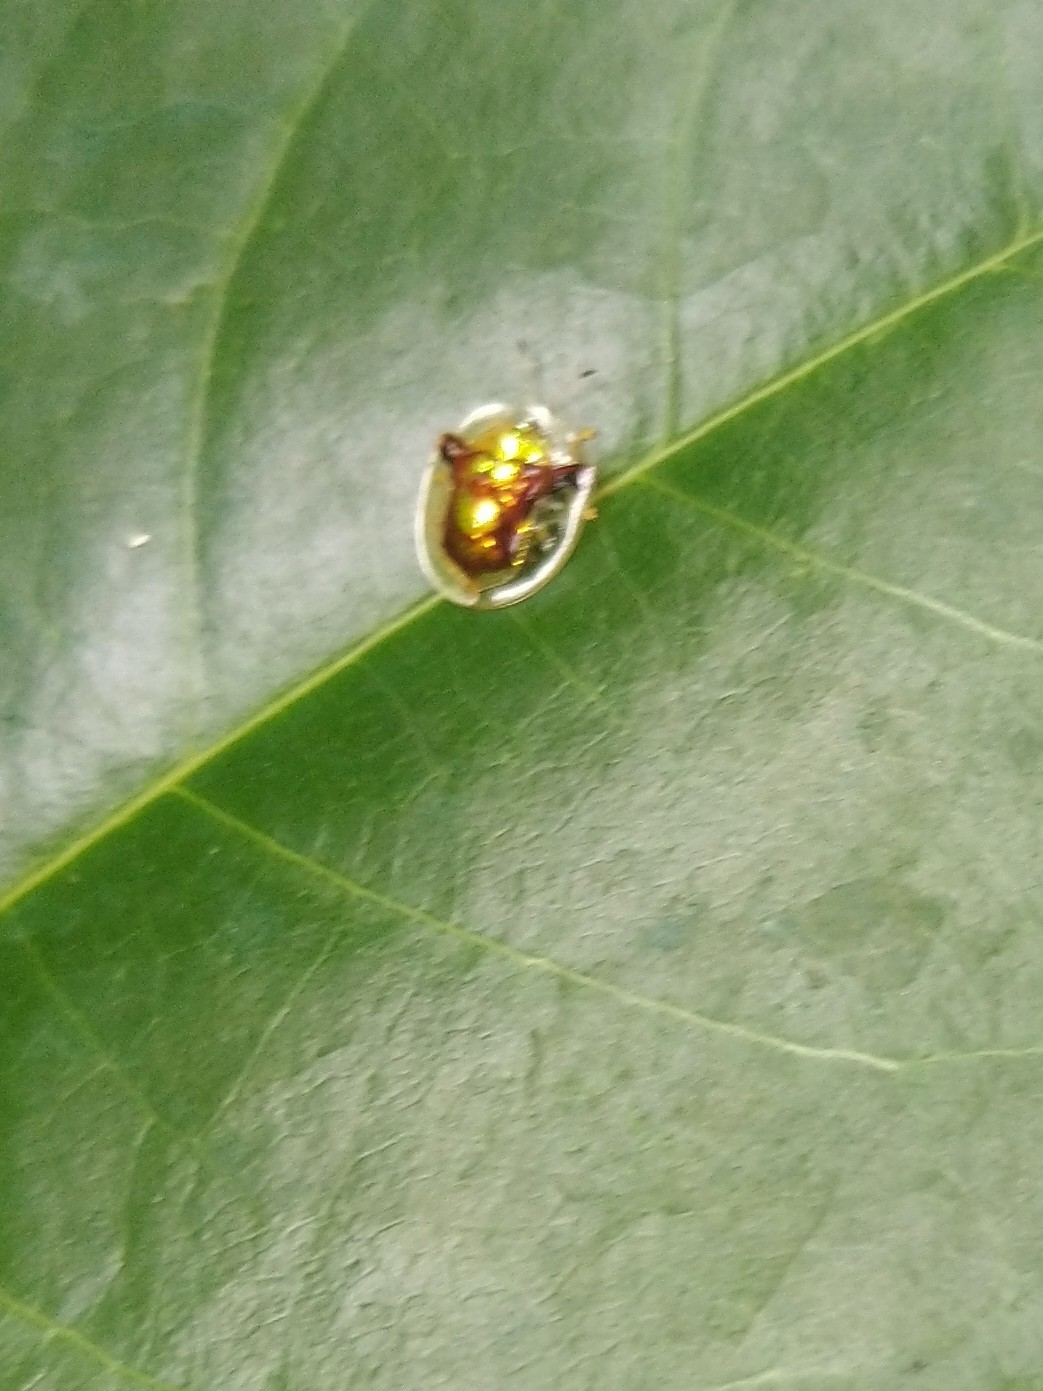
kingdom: Animalia
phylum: Arthropoda
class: Insecta
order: Coleoptera
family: Chrysomelidae
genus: Aspidimorpha
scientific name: Aspidimorpha furcata
